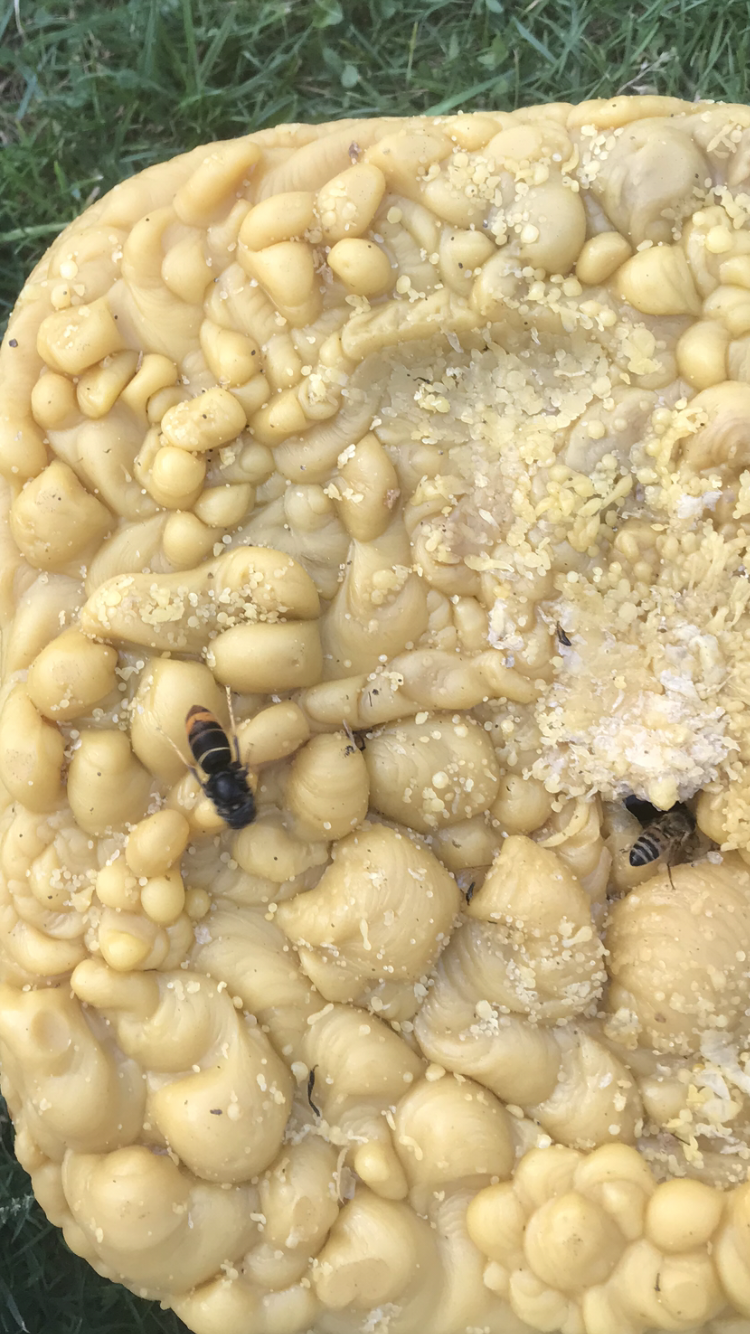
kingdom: Animalia
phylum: Arthropoda
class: Insecta
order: Hymenoptera
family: Vespidae
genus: Vespa
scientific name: Vespa velutina
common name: Asian hornet
